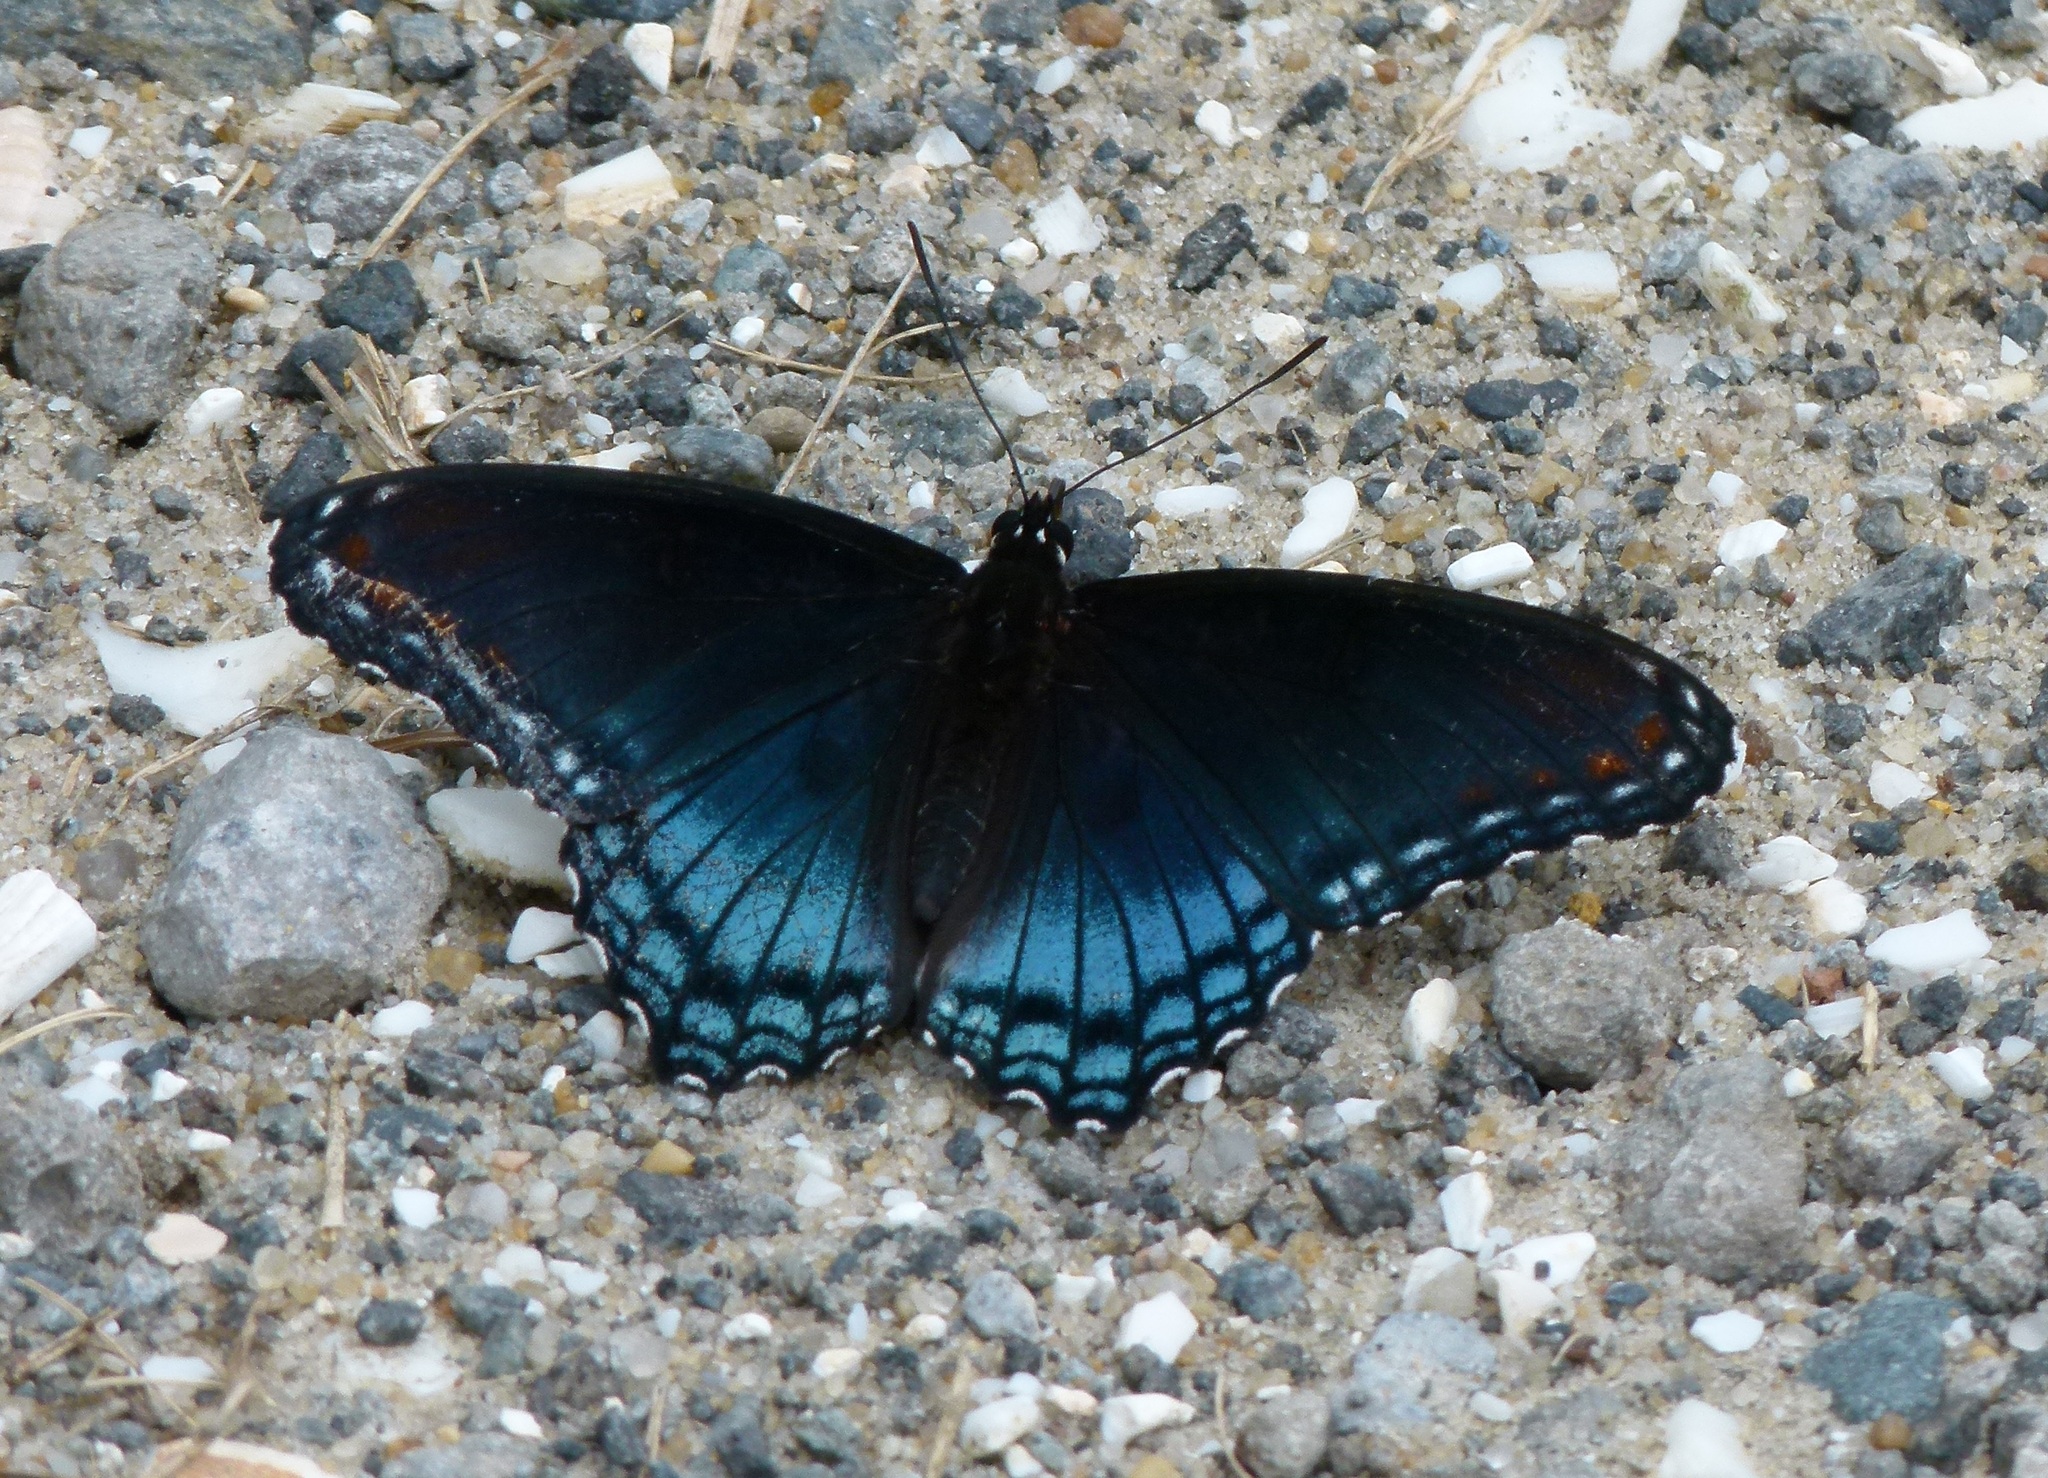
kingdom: Animalia
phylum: Arthropoda
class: Insecta
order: Lepidoptera
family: Nymphalidae
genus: Limenitis
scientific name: Limenitis astyanax
